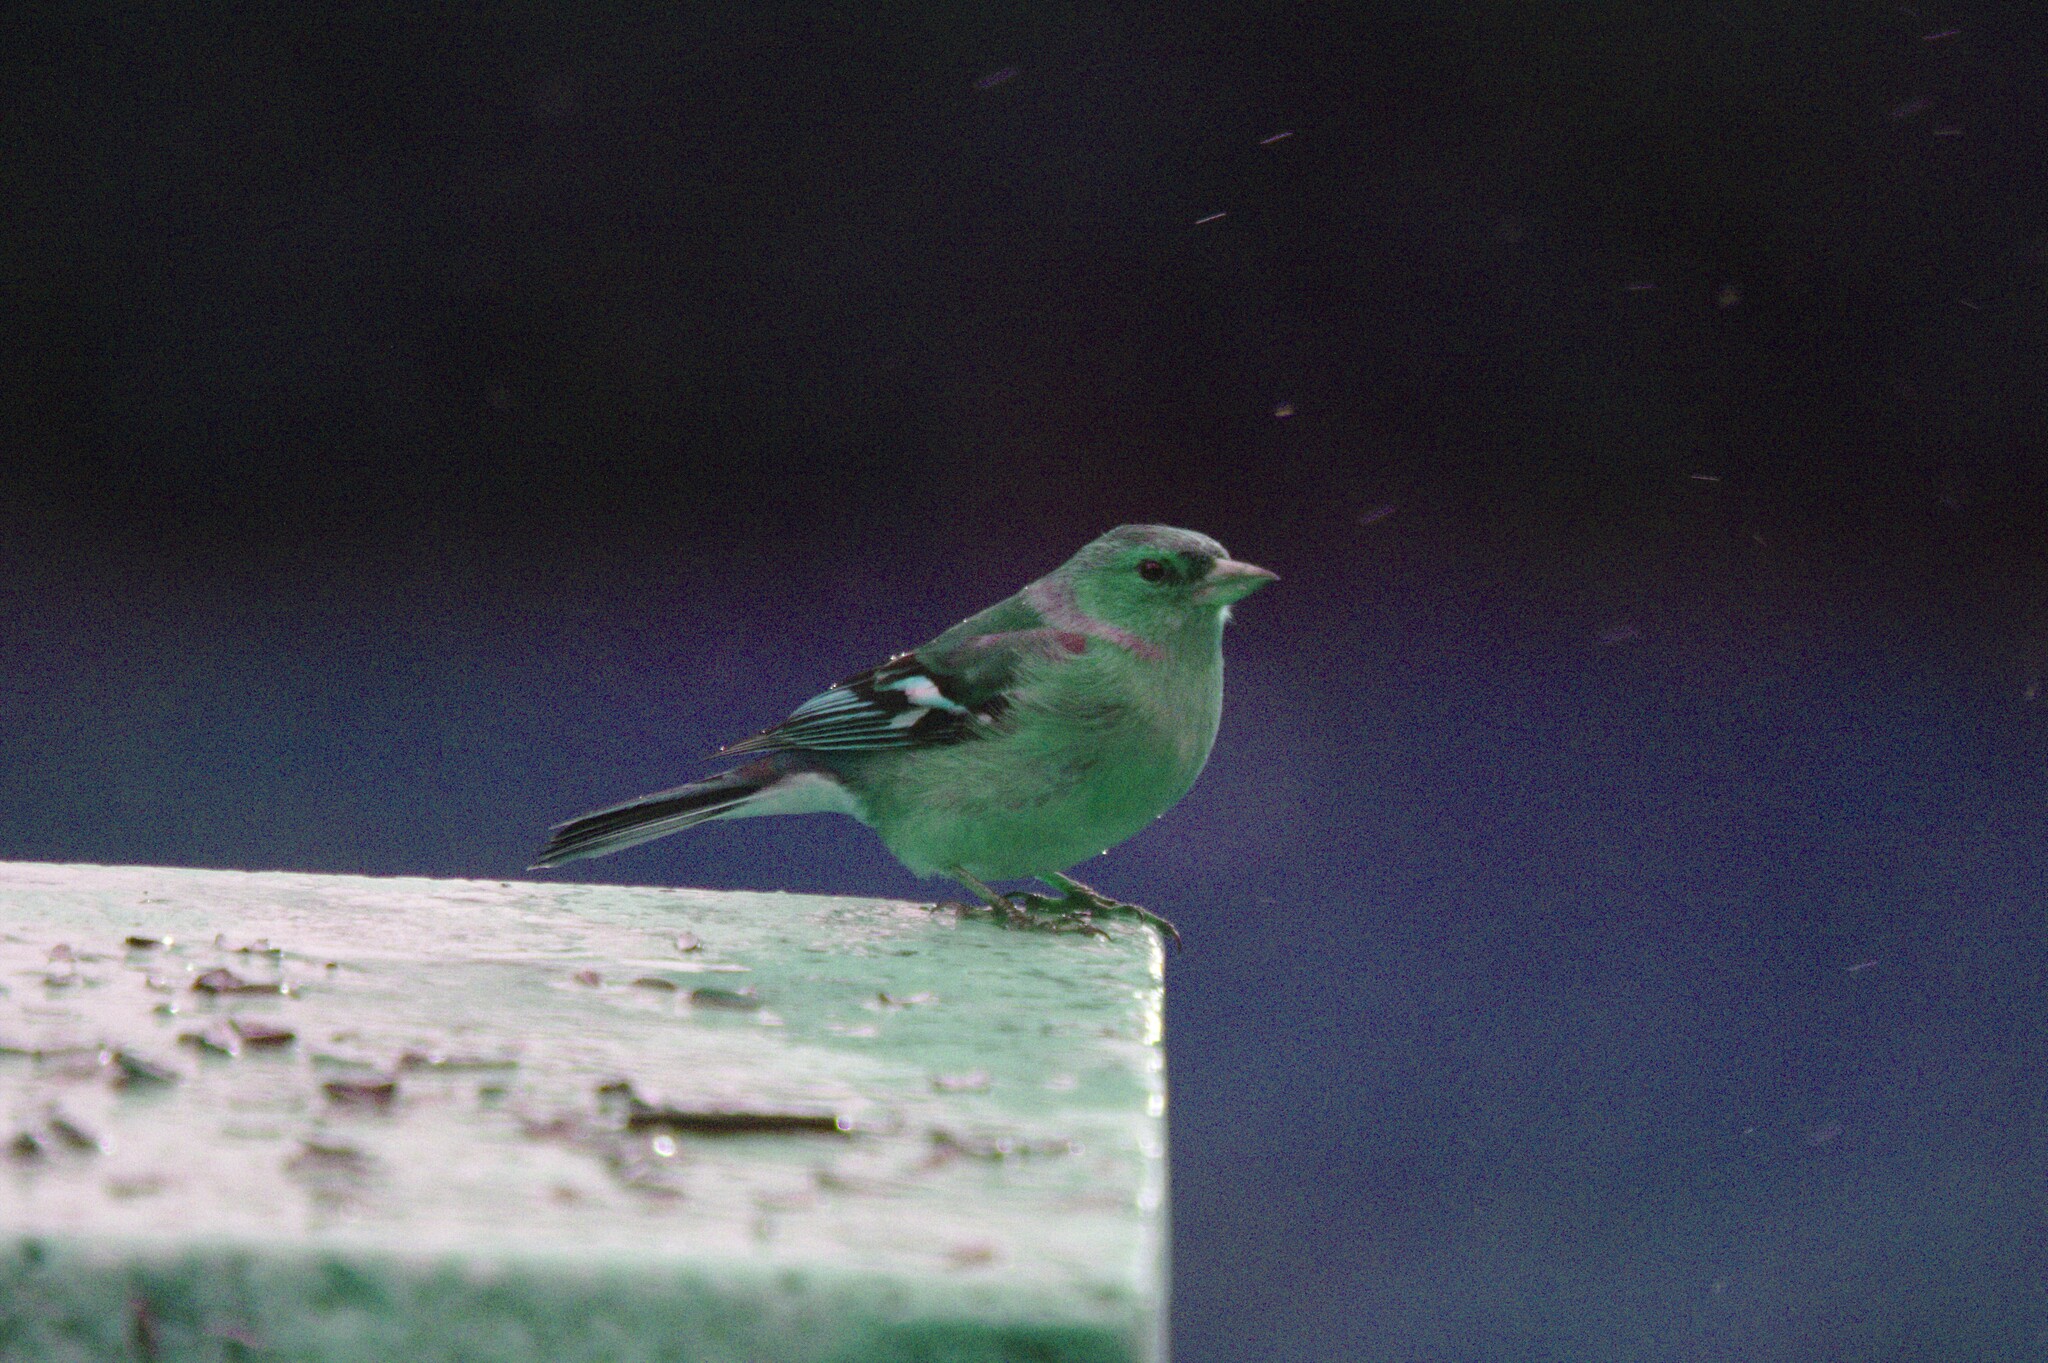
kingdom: Animalia
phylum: Chordata
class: Aves
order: Passeriformes
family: Fringillidae
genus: Fringilla
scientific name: Fringilla coelebs
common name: Common chaffinch
